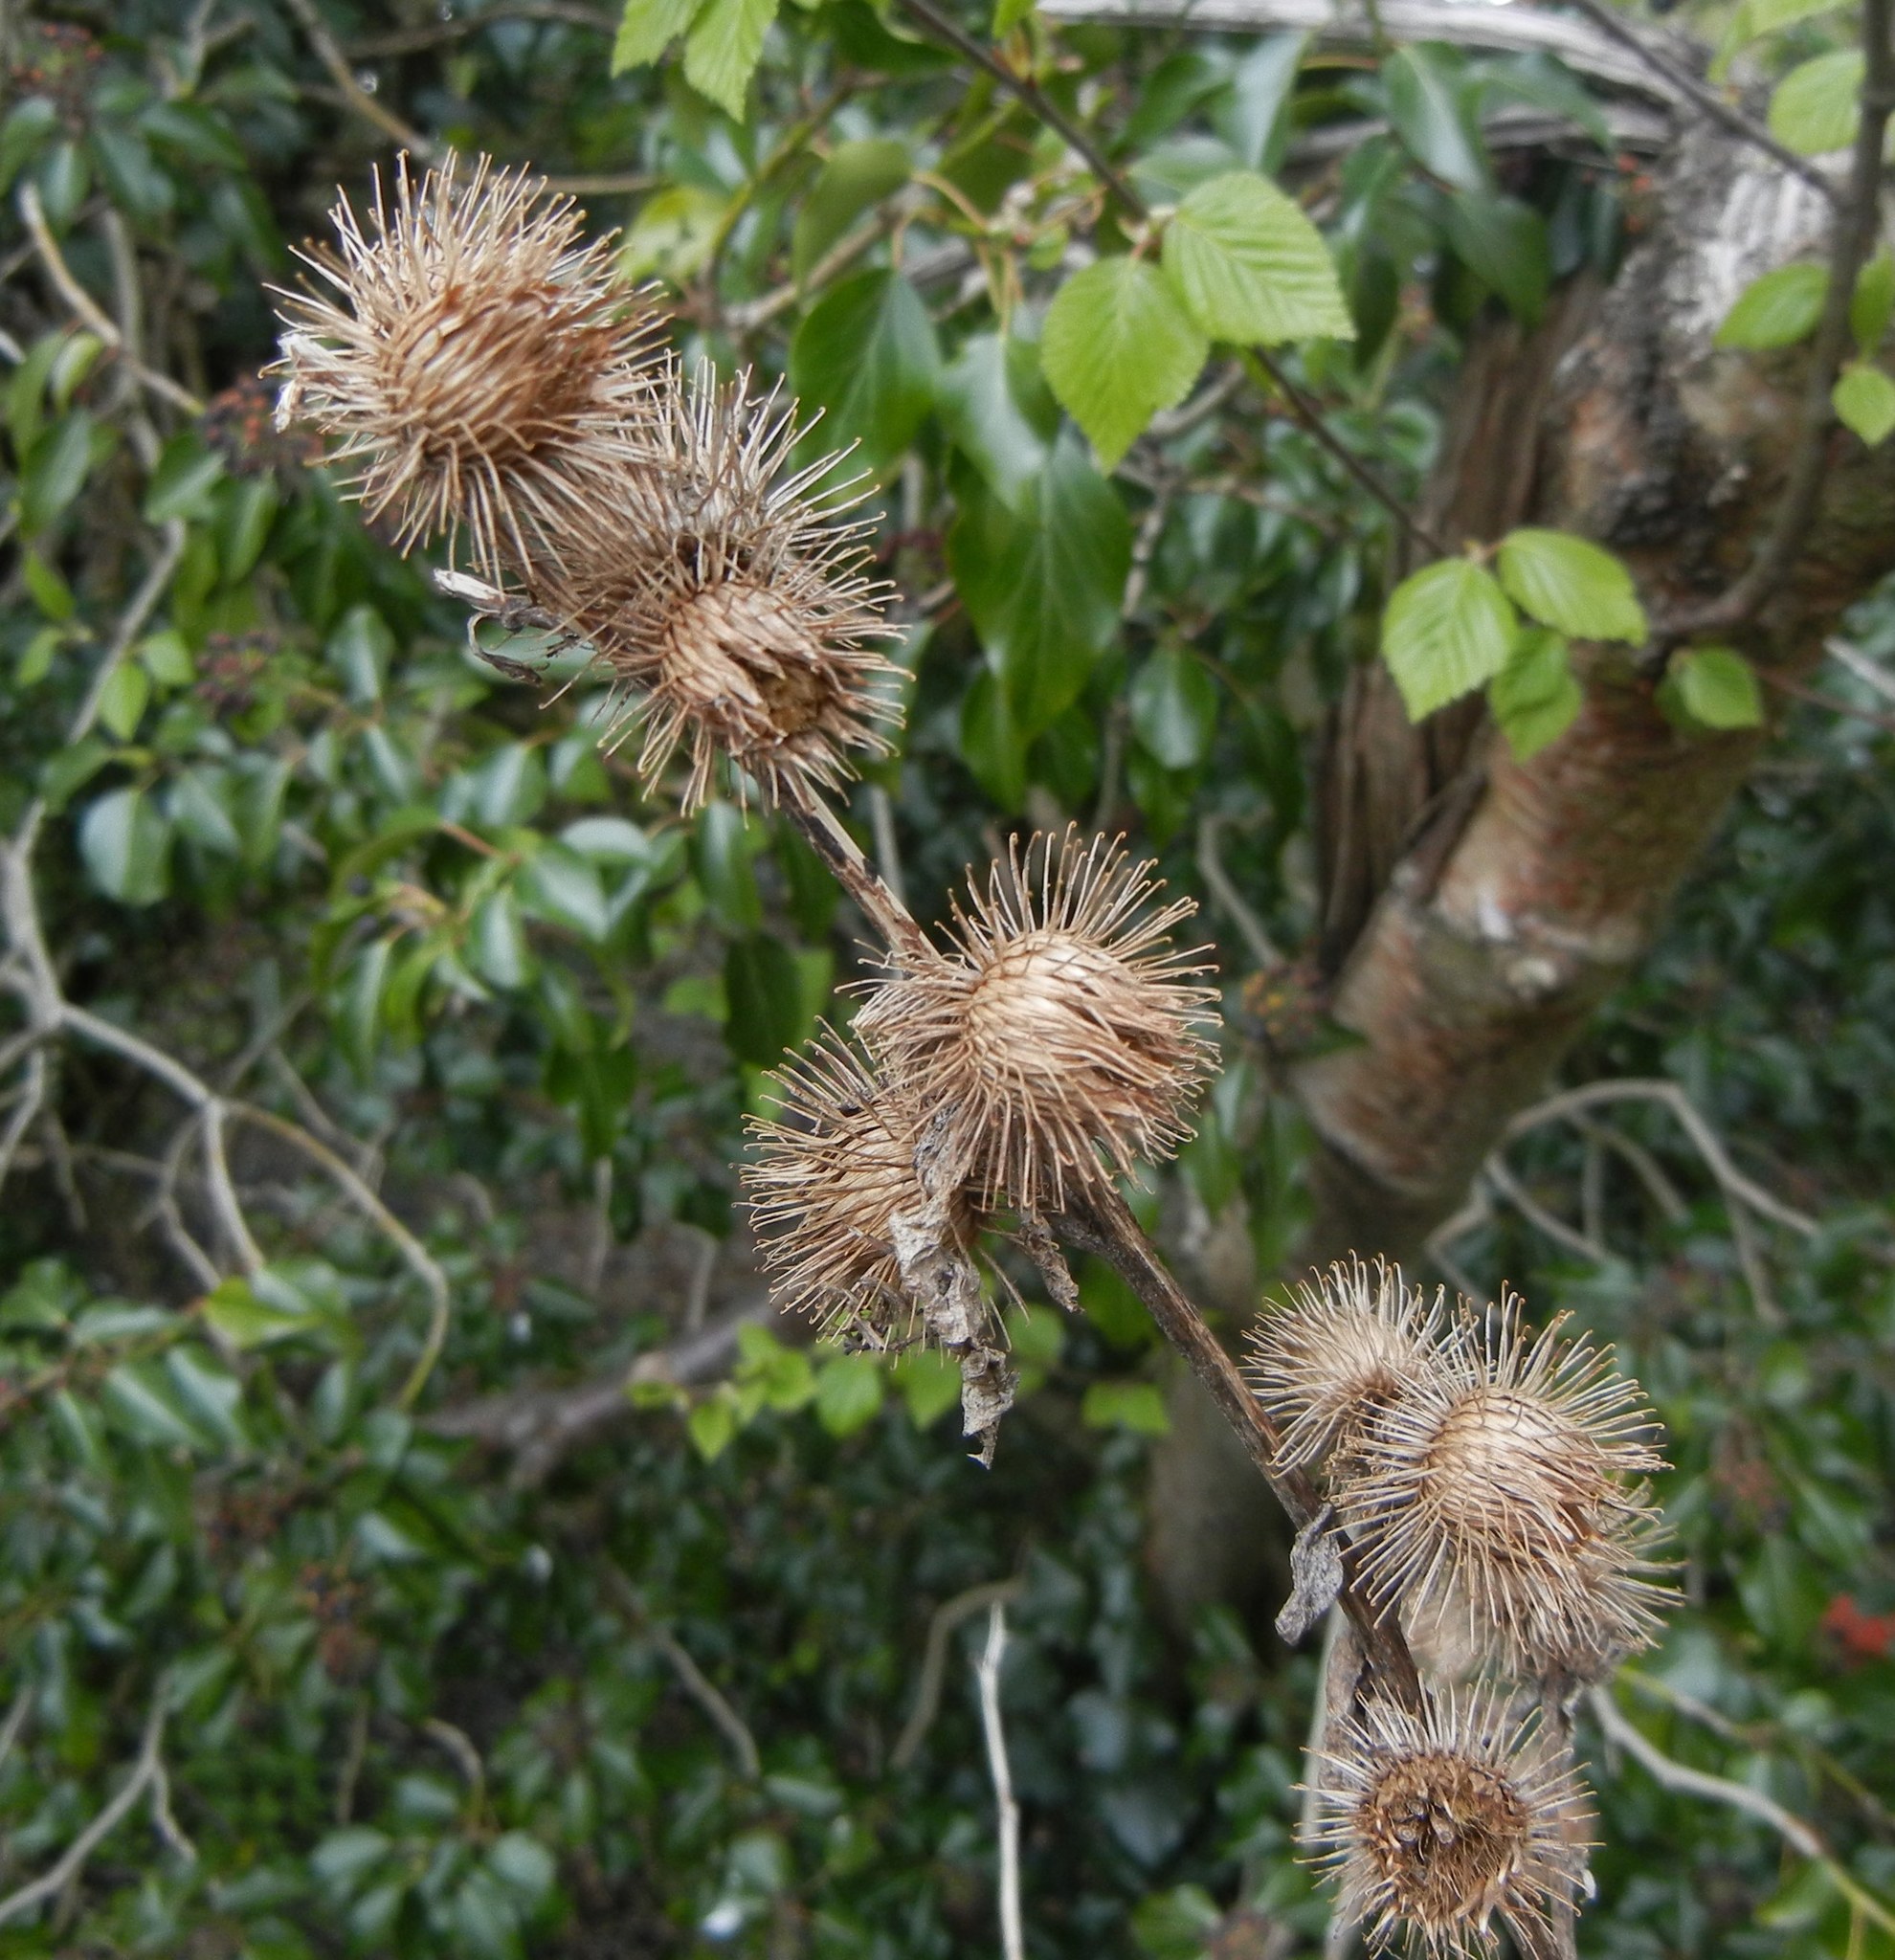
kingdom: Plantae
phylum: Tracheophyta
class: Magnoliopsida
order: Asterales
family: Asteraceae
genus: Arctium
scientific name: Arctium minus
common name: Lesser burdock
